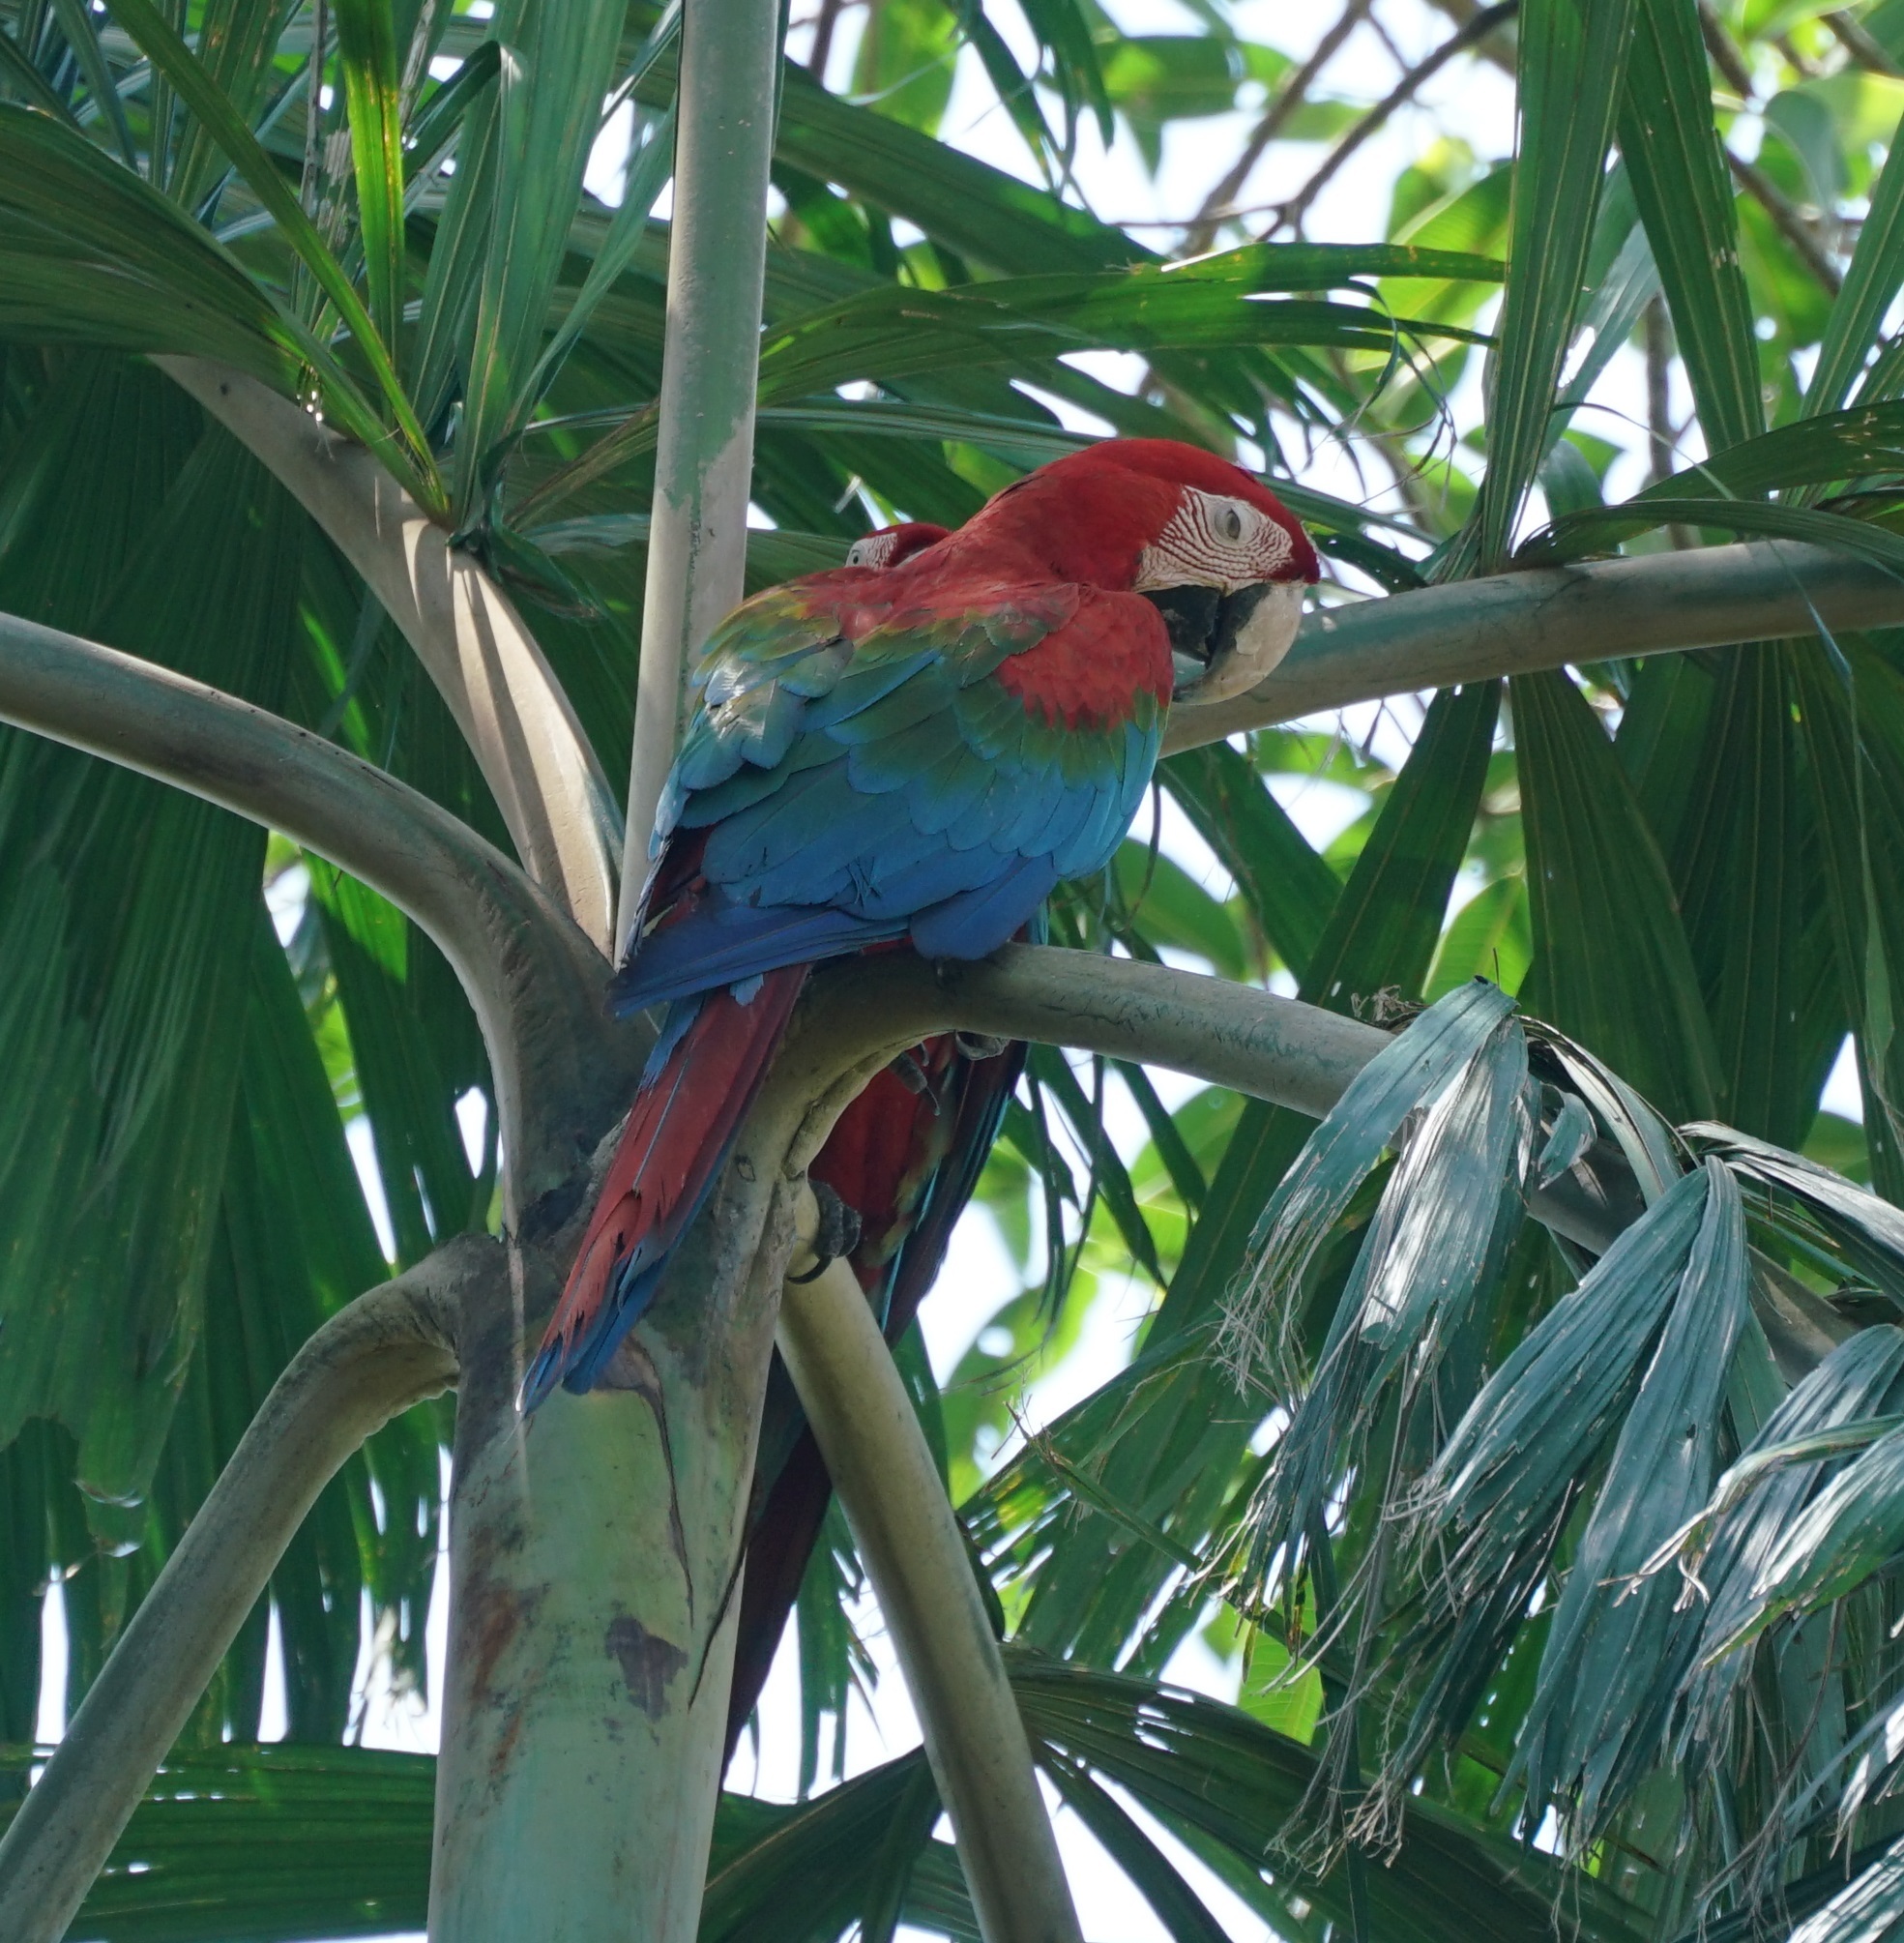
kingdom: Animalia
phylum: Chordata
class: Aves
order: Psittaciformes
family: Psittacidae
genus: Ara
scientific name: Ara chloropterus
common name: Red-and-green macaw
